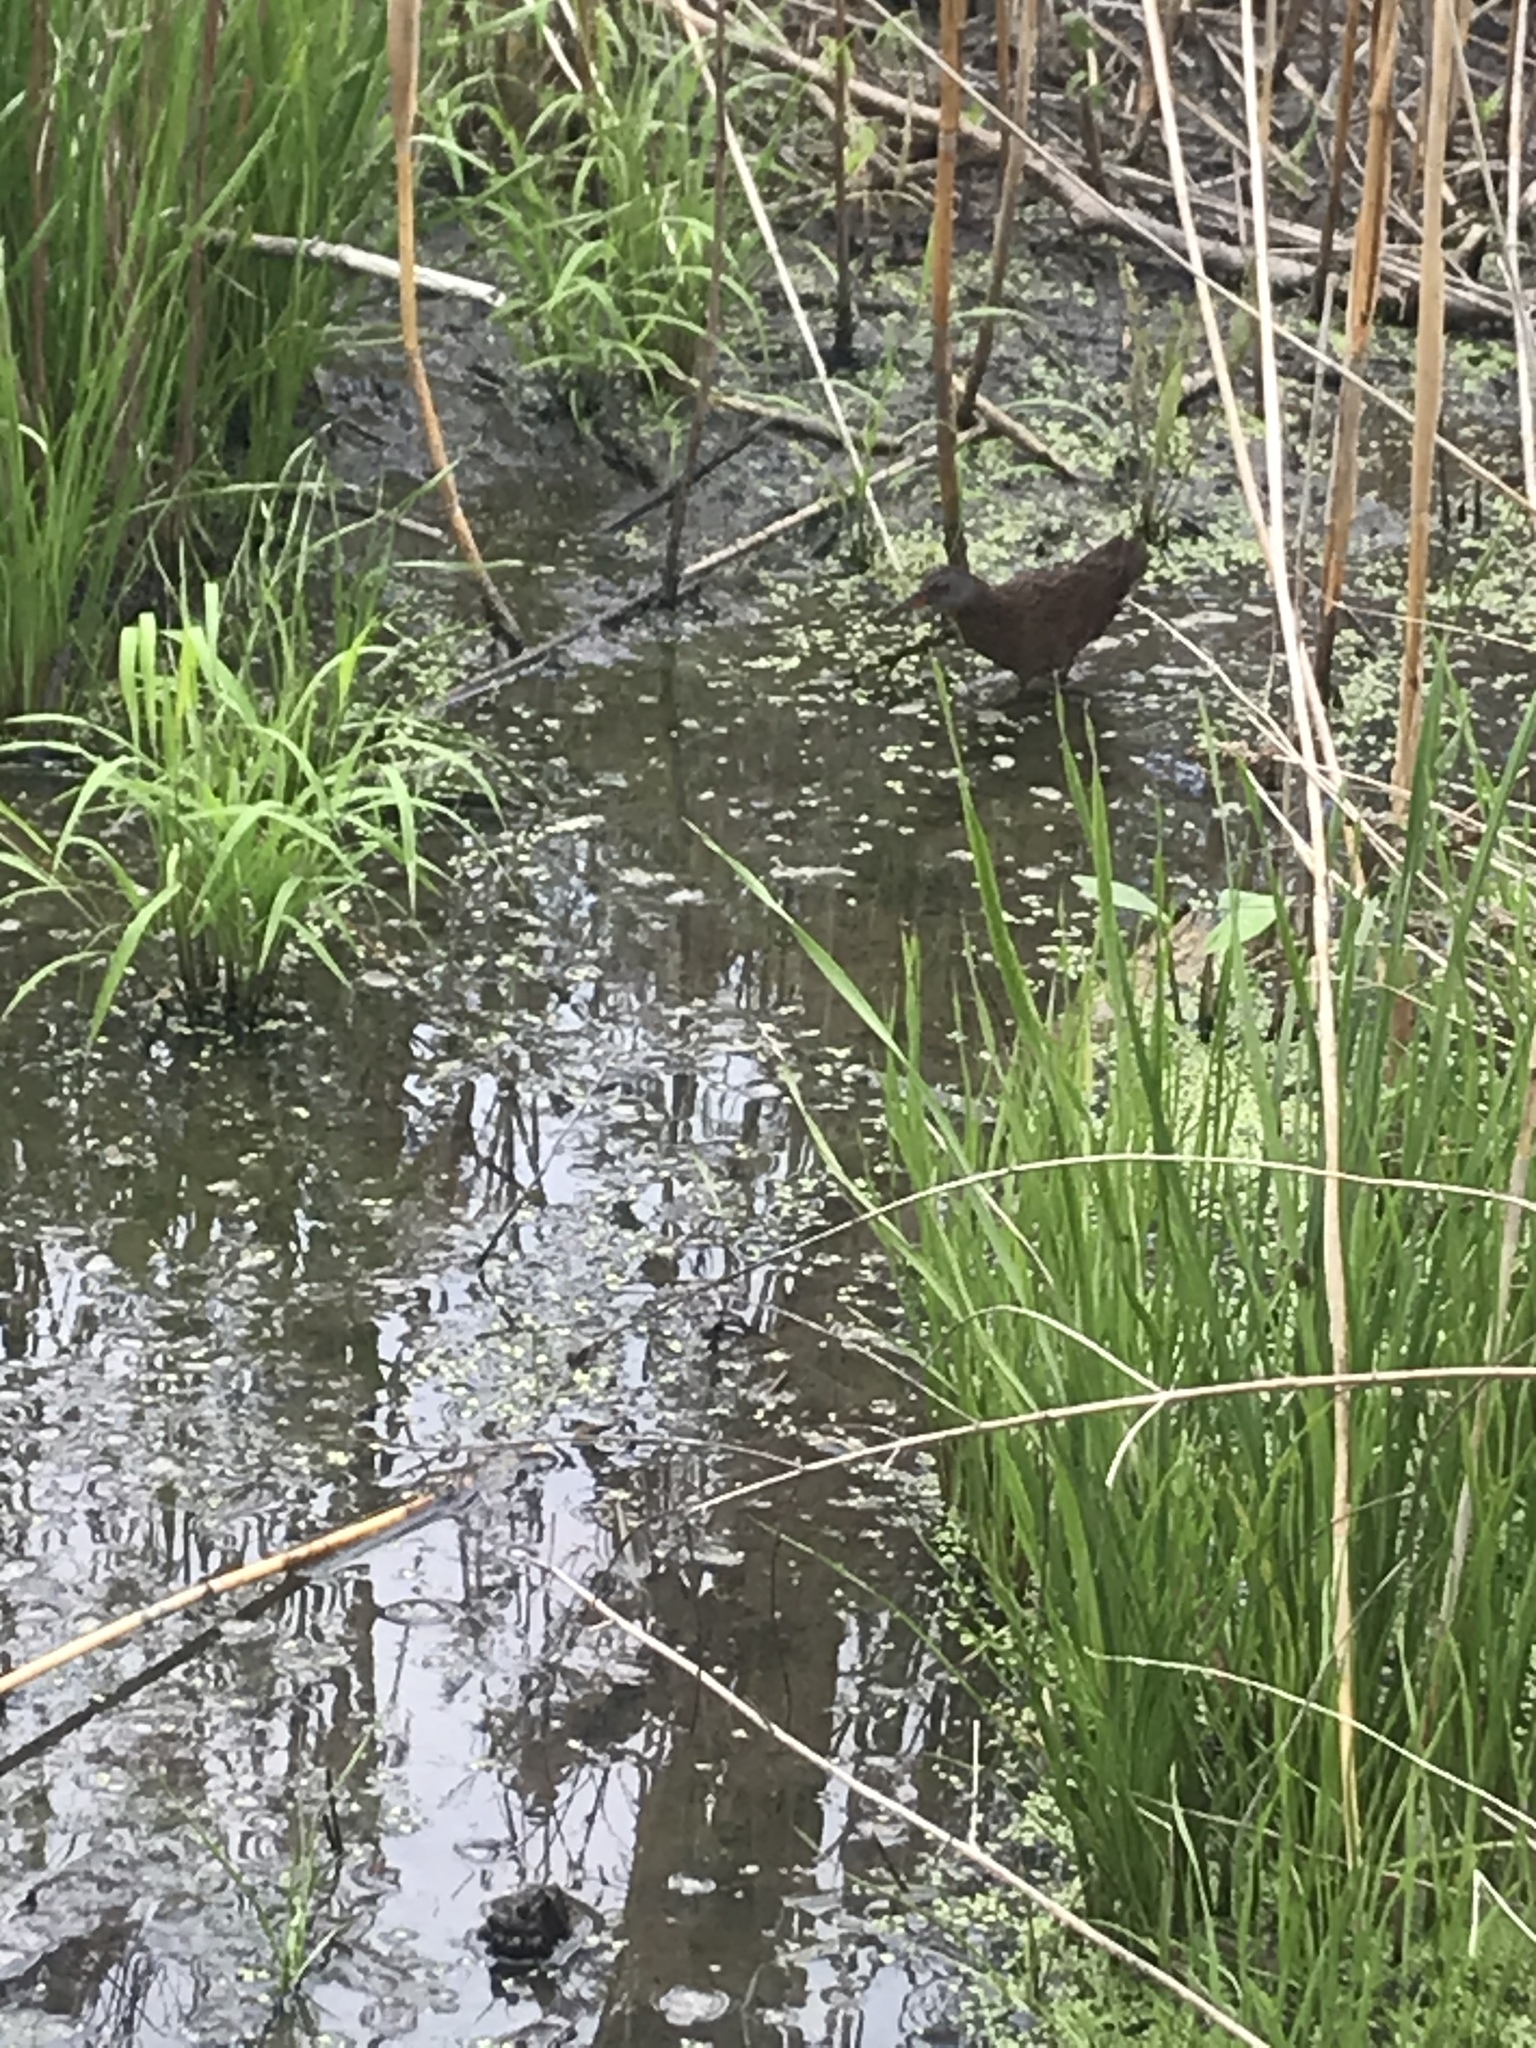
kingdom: Animalia
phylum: Chordata
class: Aves
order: Gruiformes
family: Rallidae
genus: Rallus
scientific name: Rallus limicola
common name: Virginia rail
